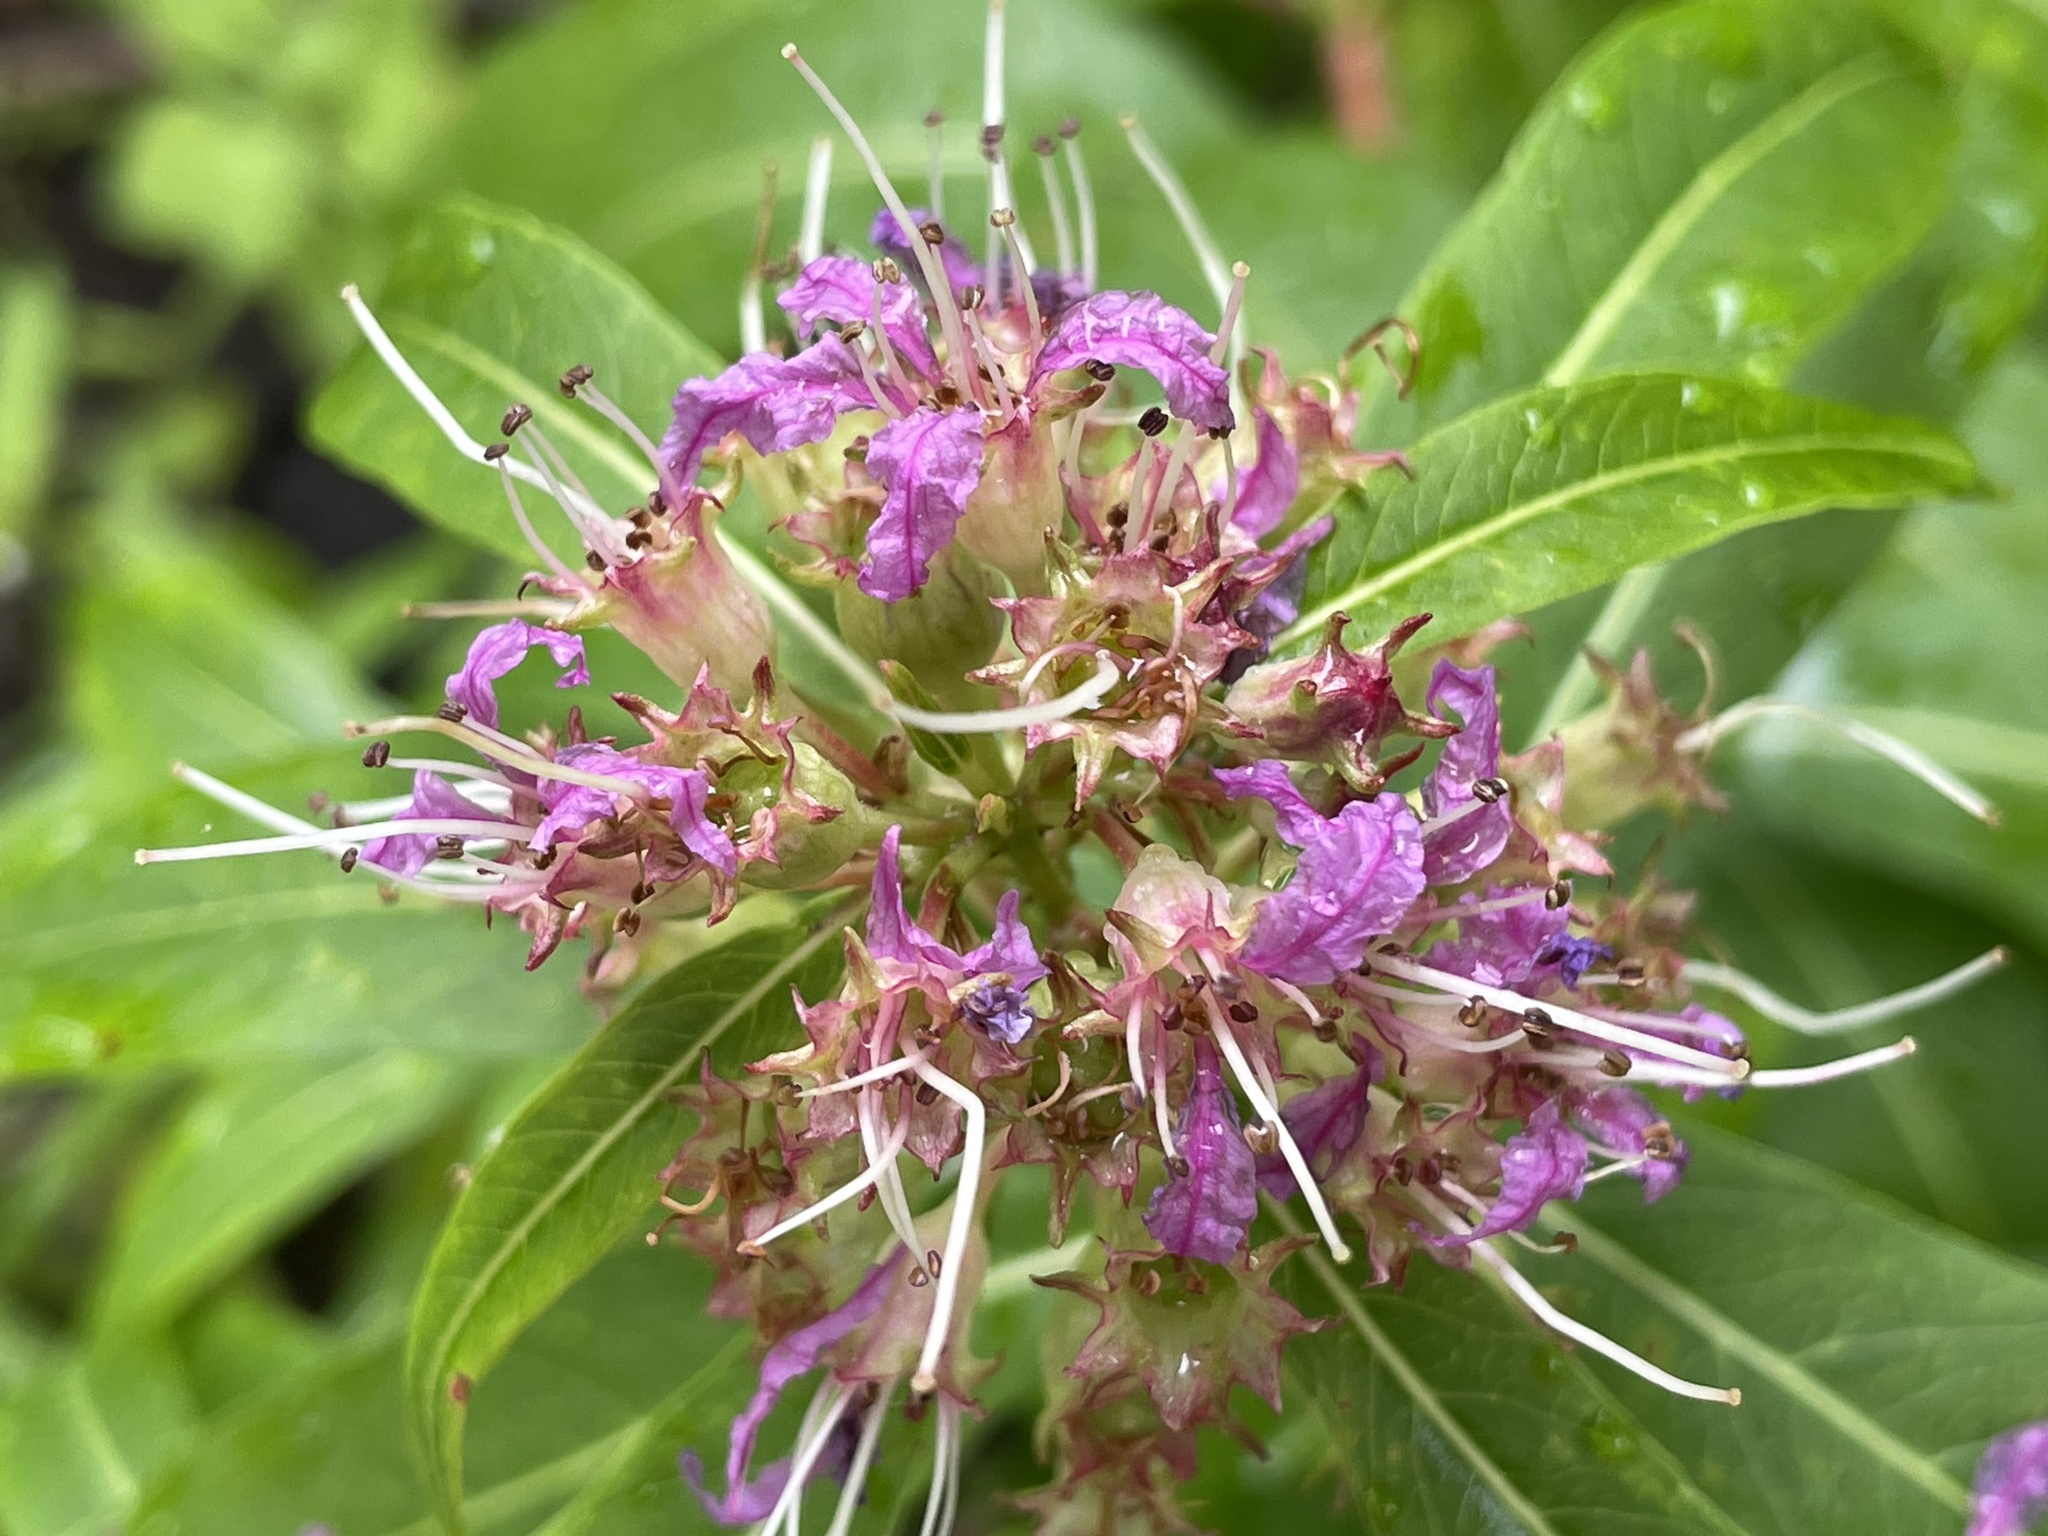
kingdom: Plantae
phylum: Tracheophyta
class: Magnoliopsida
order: Myrtales
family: Lythraceae
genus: Decodon
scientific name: Decodon verticillatus
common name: Hairy swamp loosestrife
